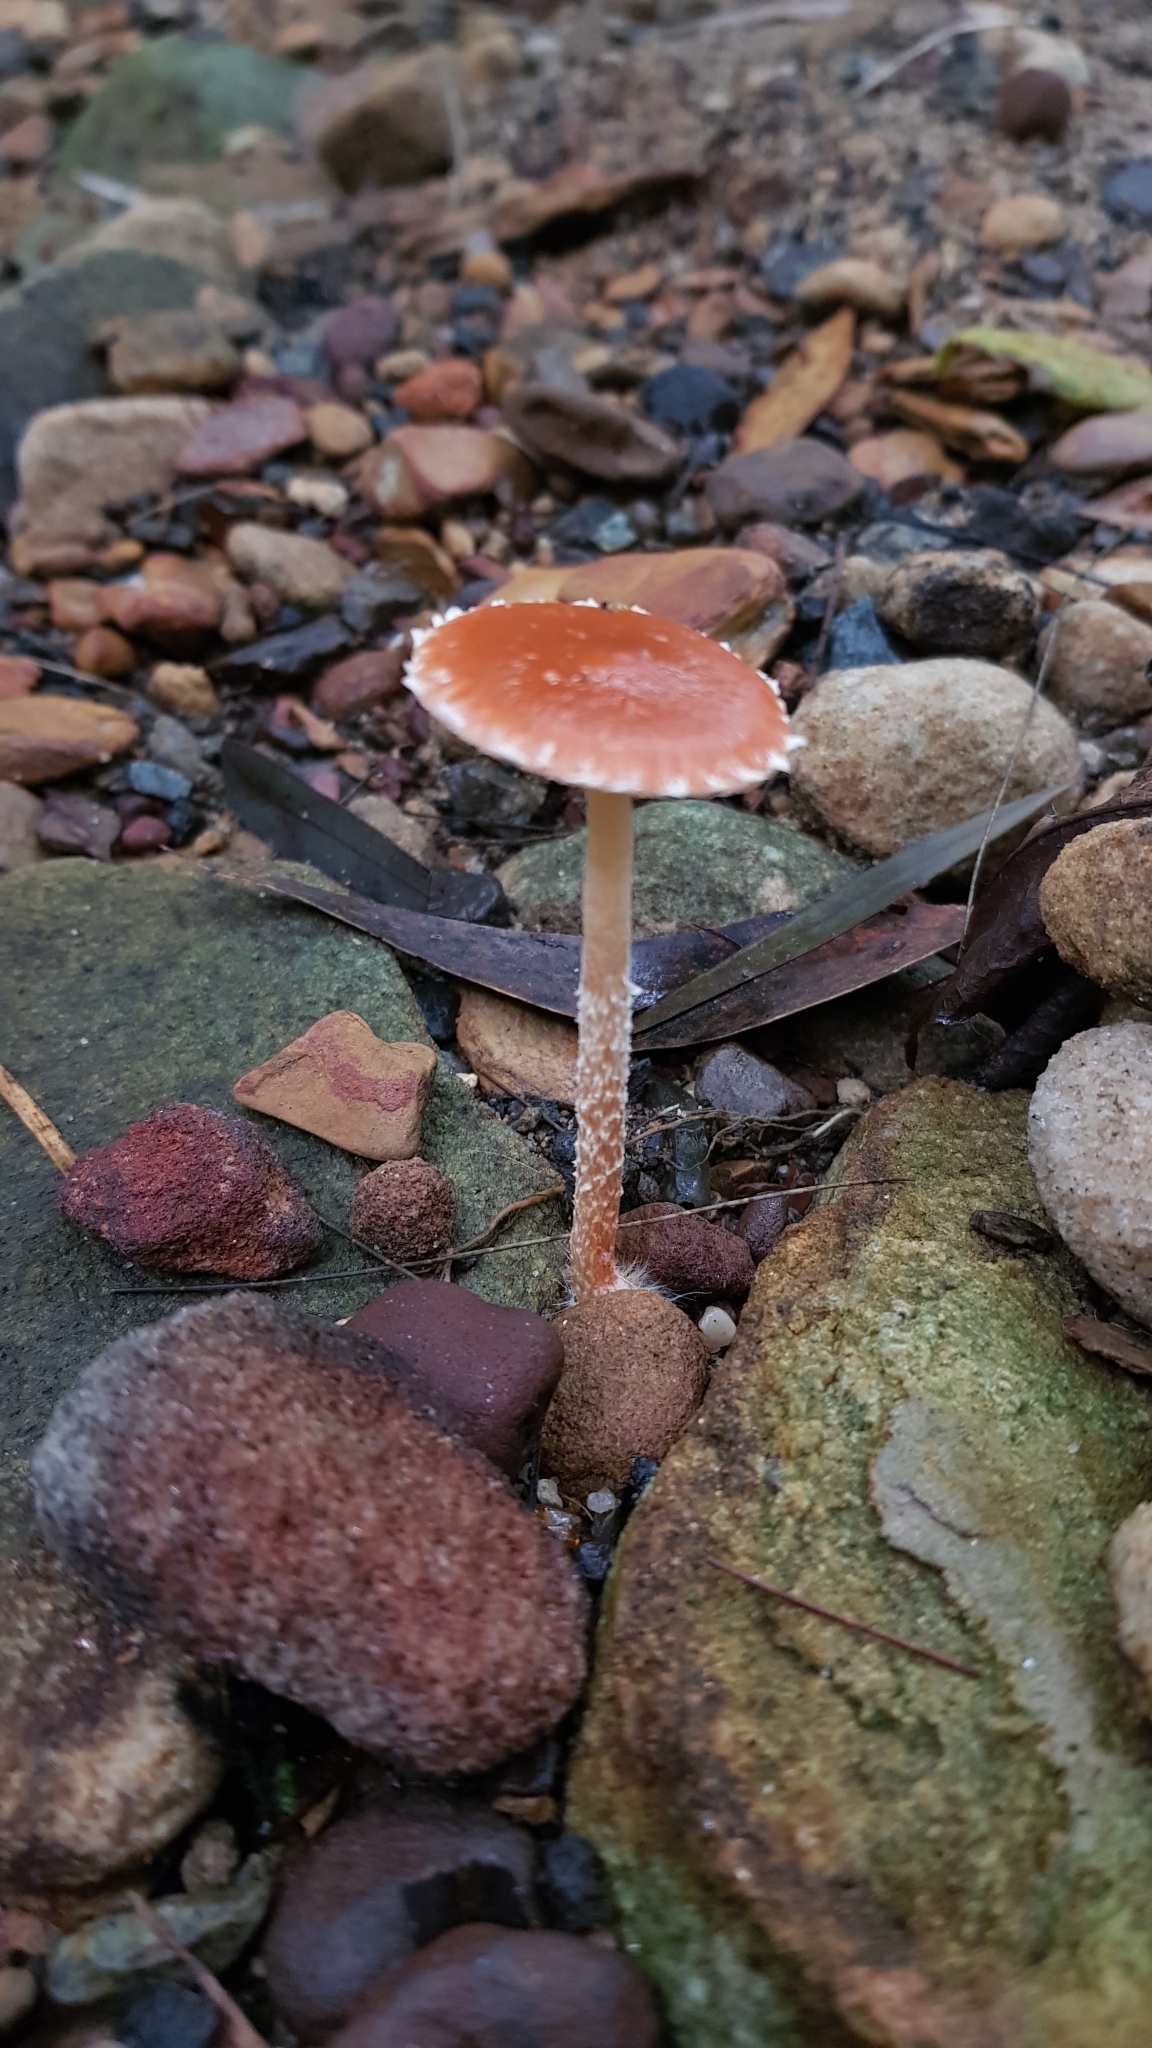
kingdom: Fungi
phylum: Basidiomycota
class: Agaricomycetes
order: Agaricales
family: Strophariaceae
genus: Leratiomyces
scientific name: Leratiomyces ceres
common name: Redlead roundhead
